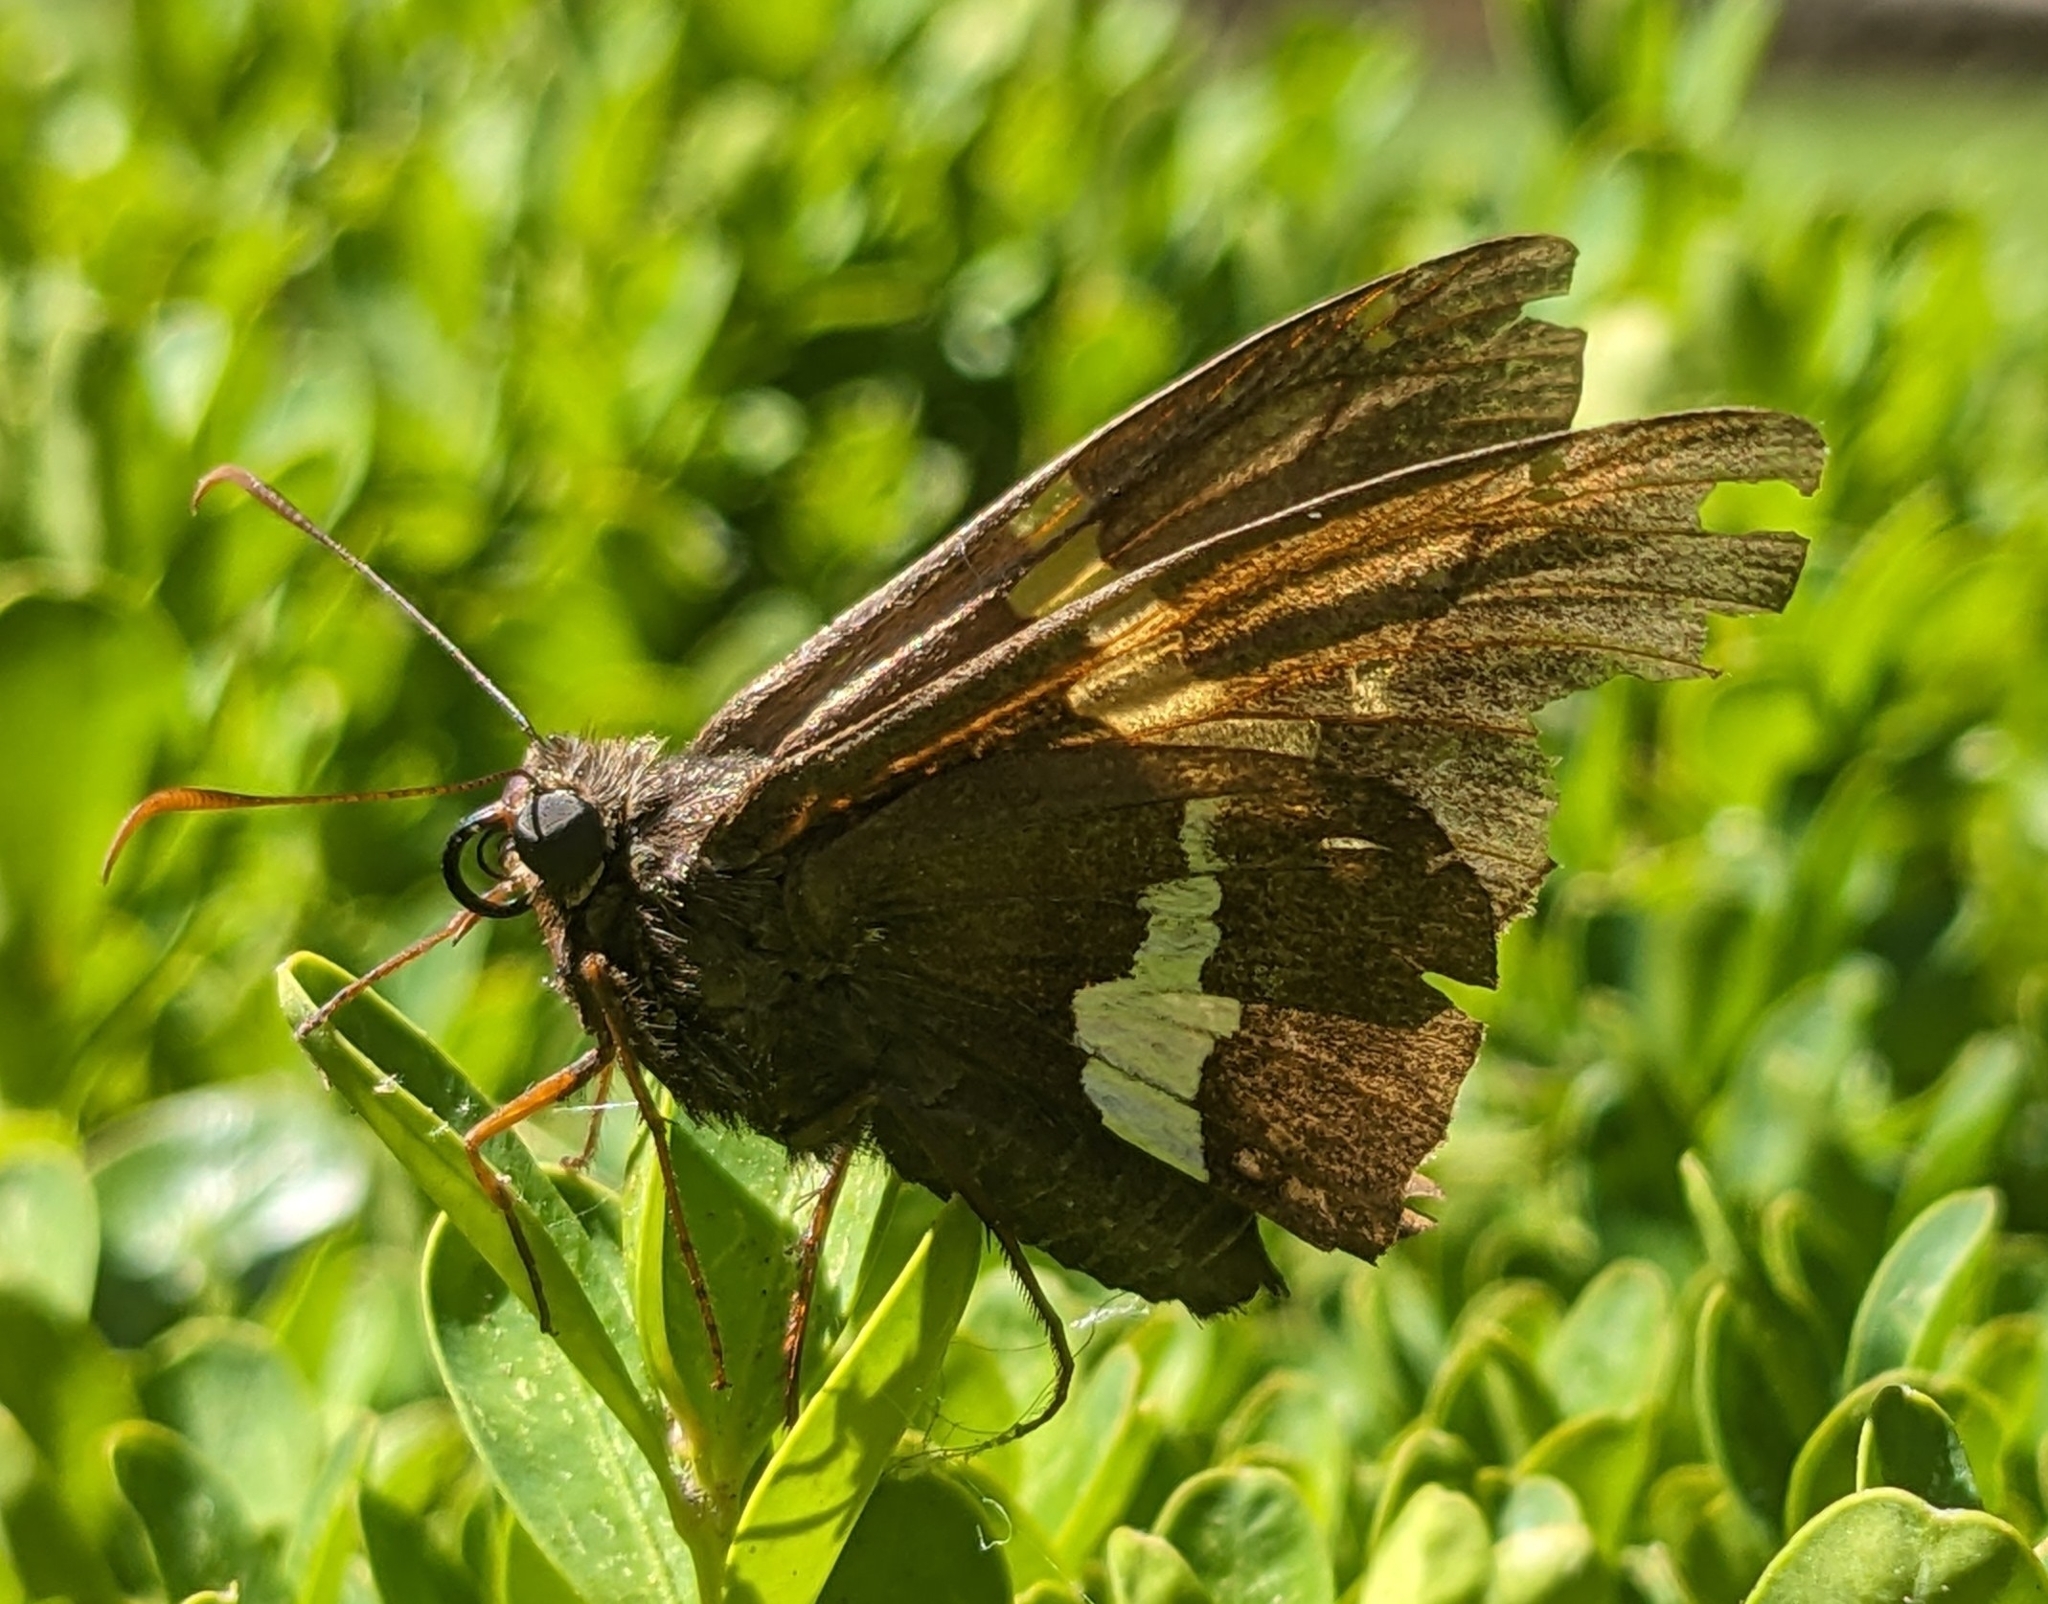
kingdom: Animalia
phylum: Arthropoda
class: Insecta
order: Lepidoptera
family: Hesperiidae
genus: Epargyreus
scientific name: Epargyreus clarus
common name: Silver-spotted skipper
